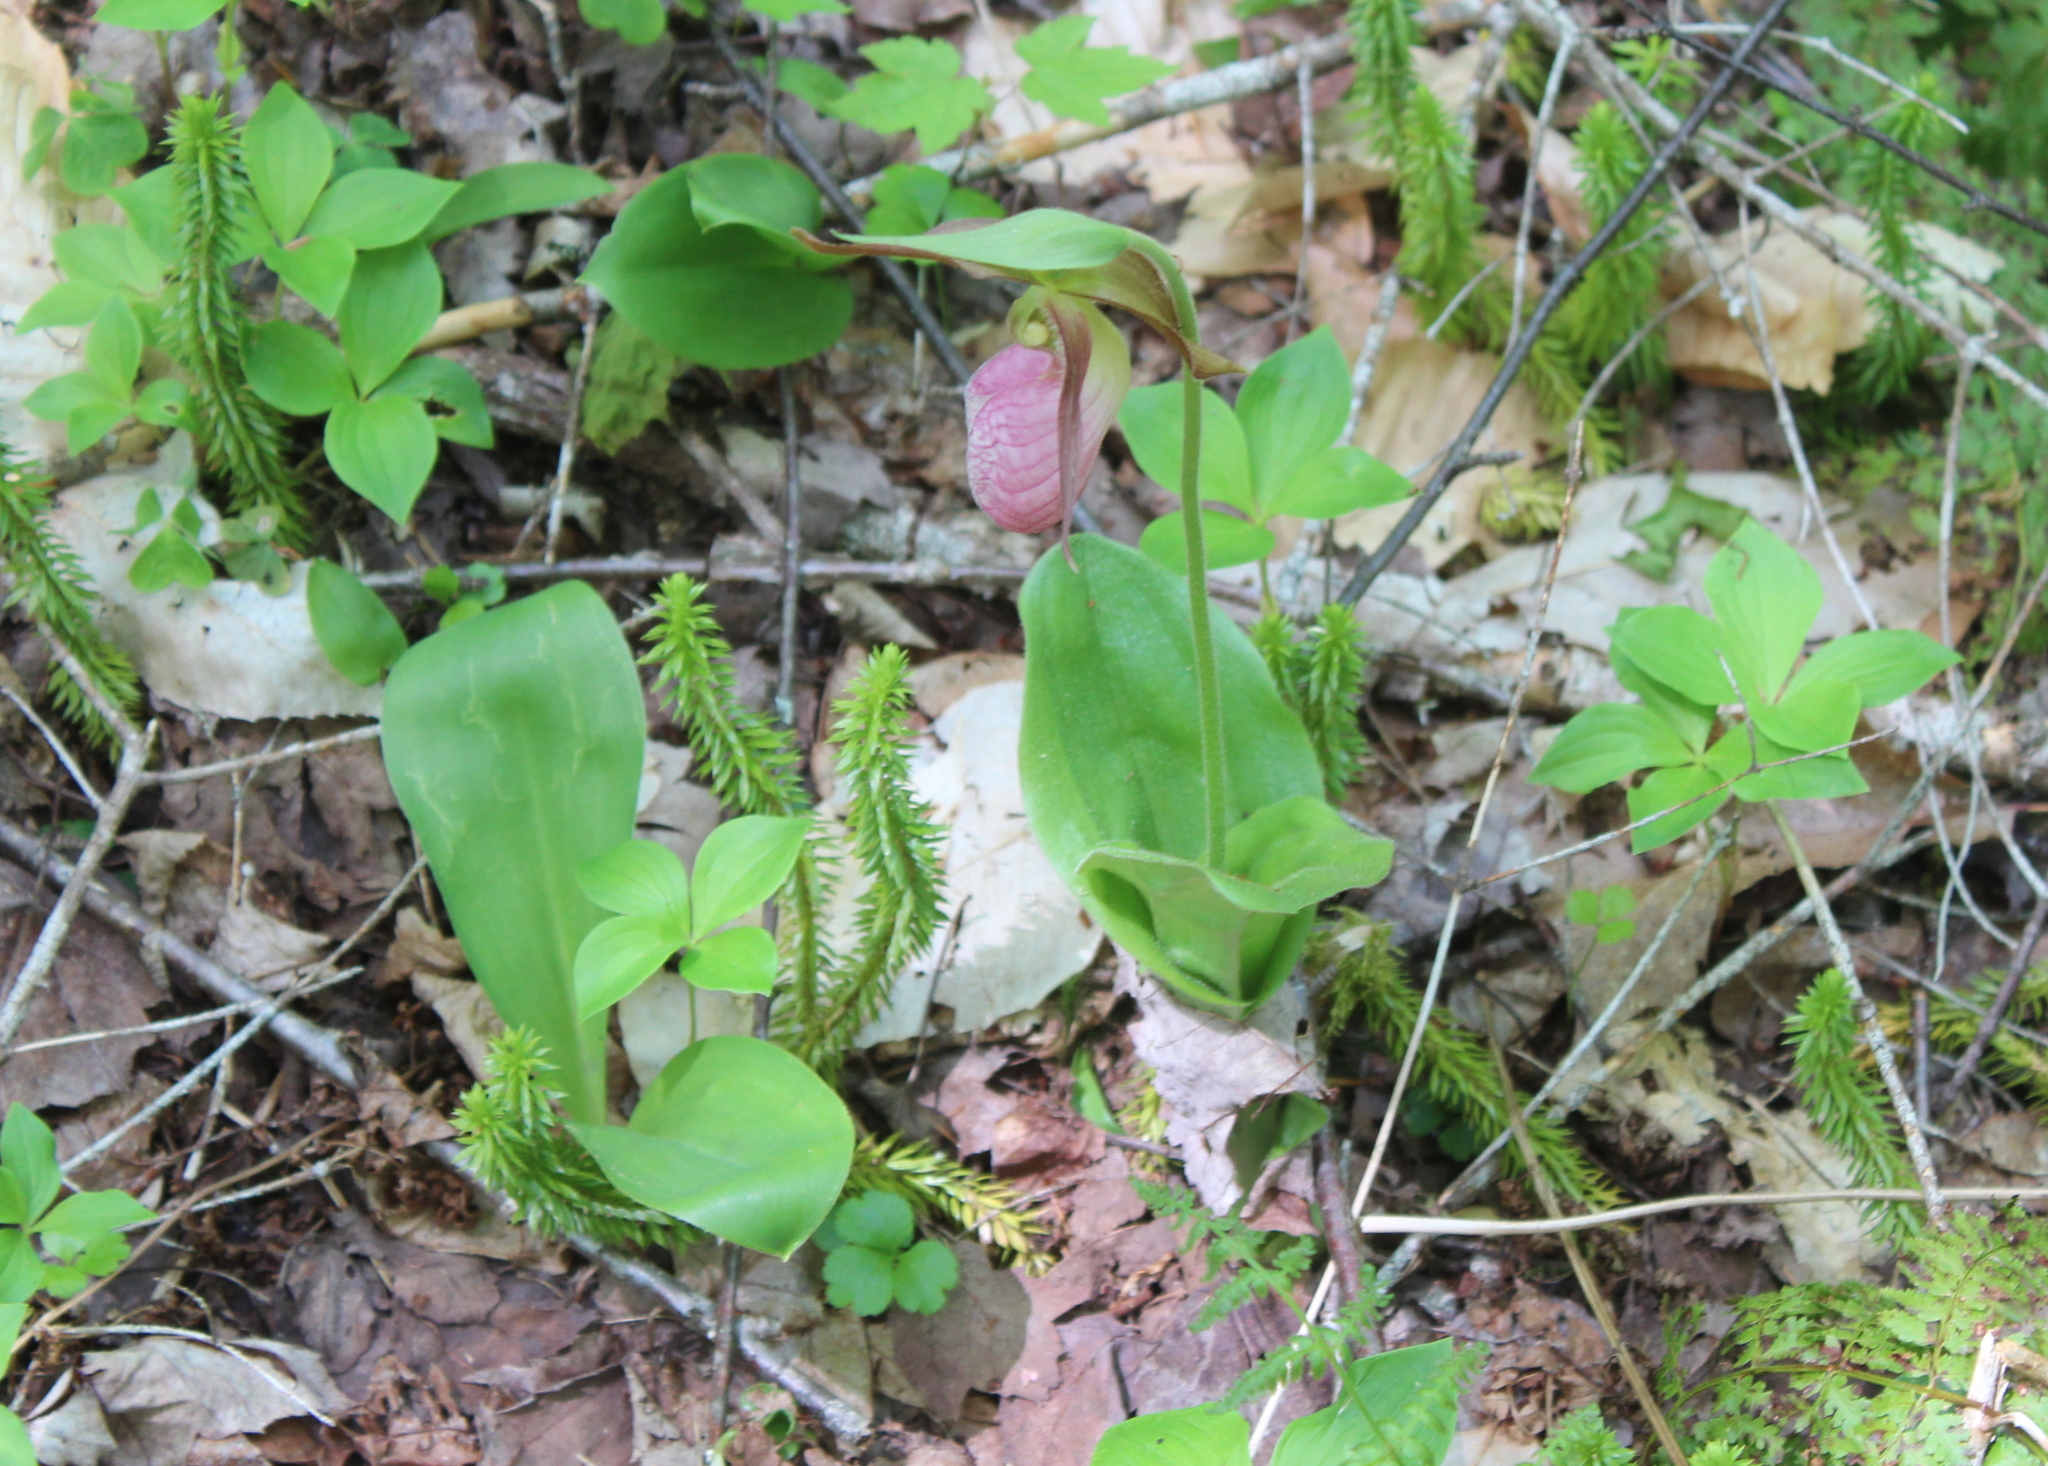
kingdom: Plantae
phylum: Tracheophyta
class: Liliopsida
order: Asparagales
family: Orchidaceae
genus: Cypripedium
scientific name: Cypripedium acaule
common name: Pink lady's-slipper
